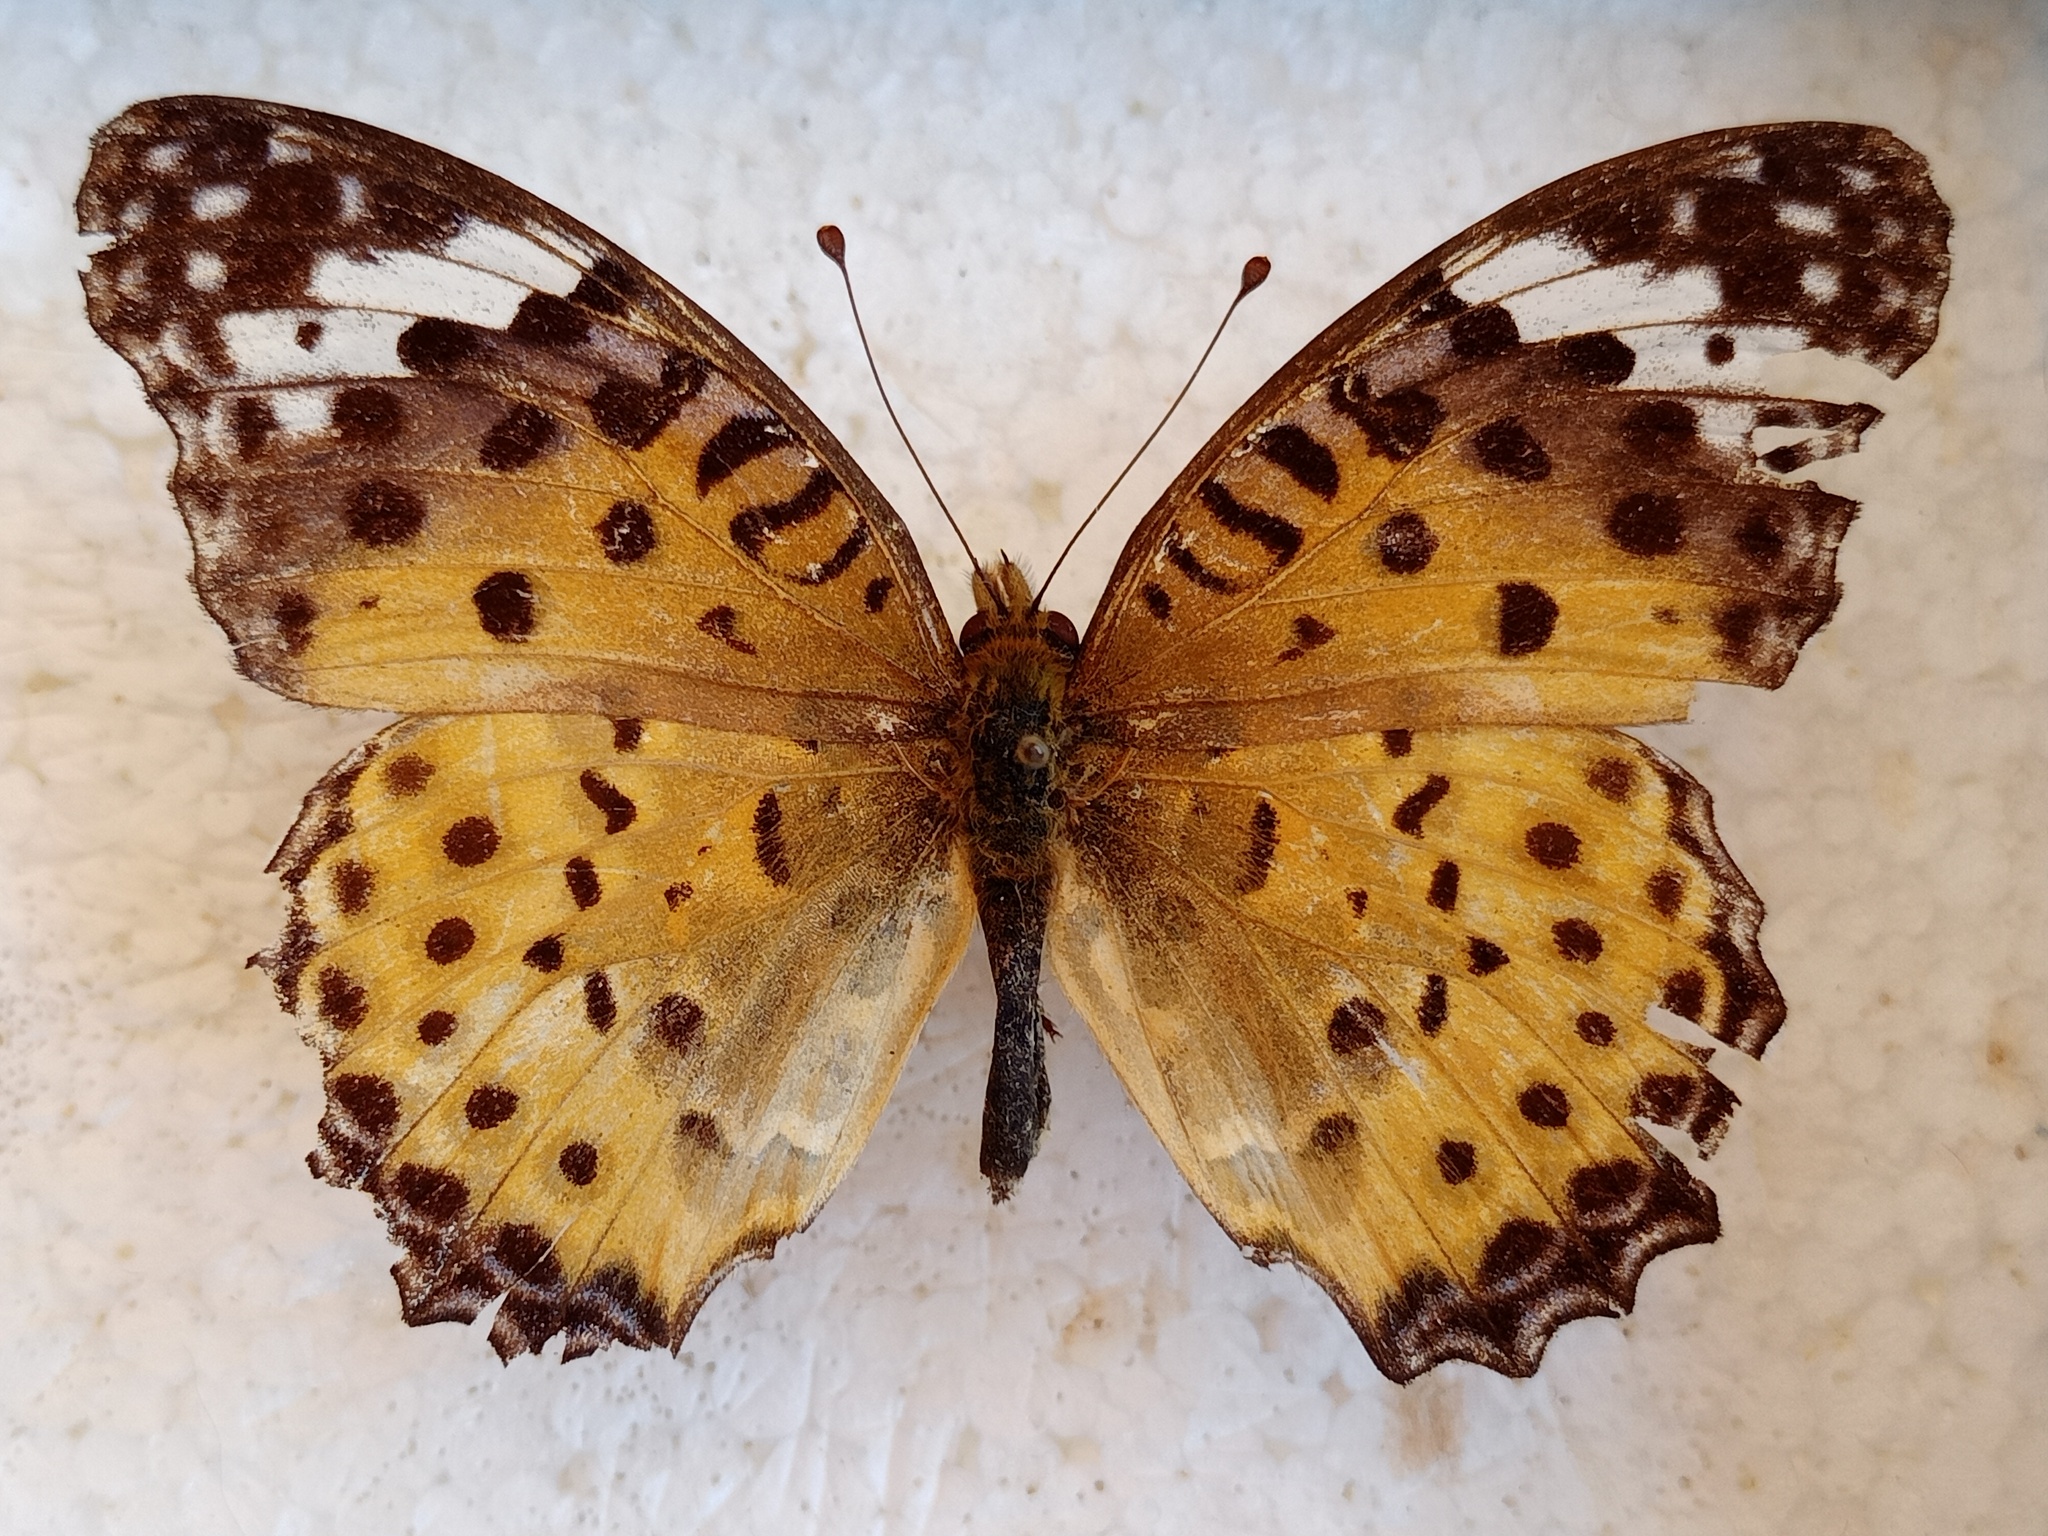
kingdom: Animalia
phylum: Arthropoda
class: Insecta
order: Lepidoptera
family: Nymphalidae
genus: Argynnis
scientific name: Argynnis hyperbius
